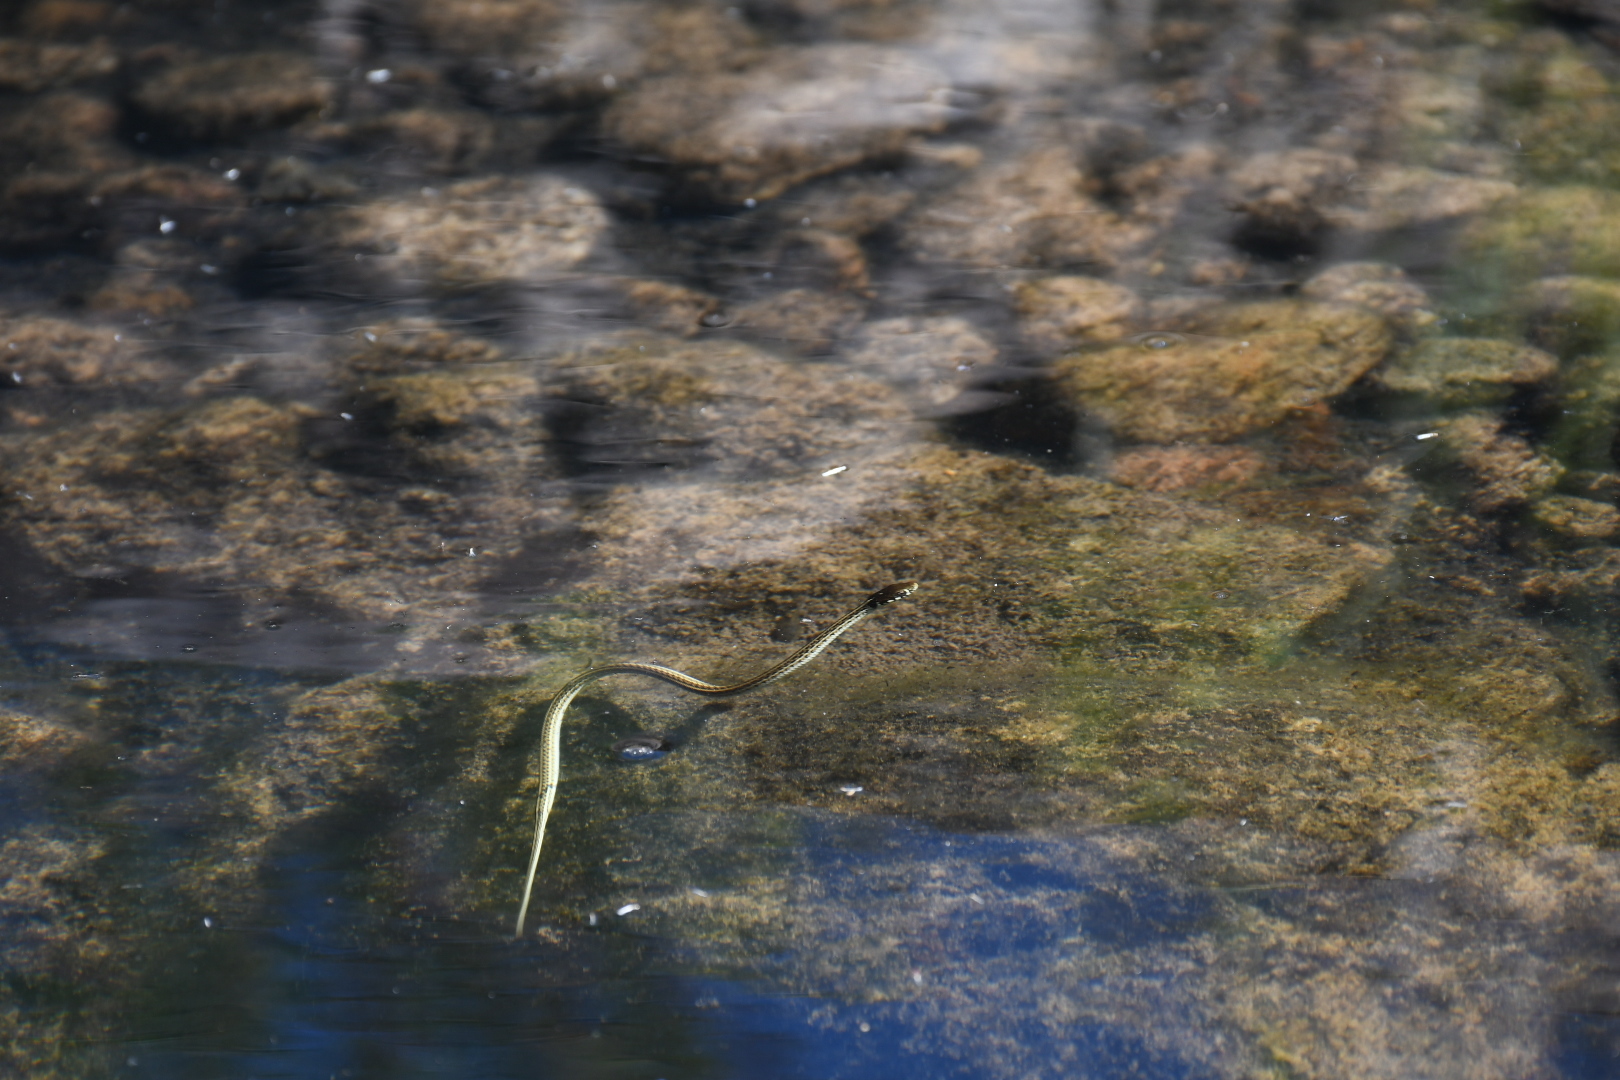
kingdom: Animalia
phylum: Chordata
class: Squamata
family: Colubridae
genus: Thamnophis
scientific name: Thamnophis eques
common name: Mexican garter snake
